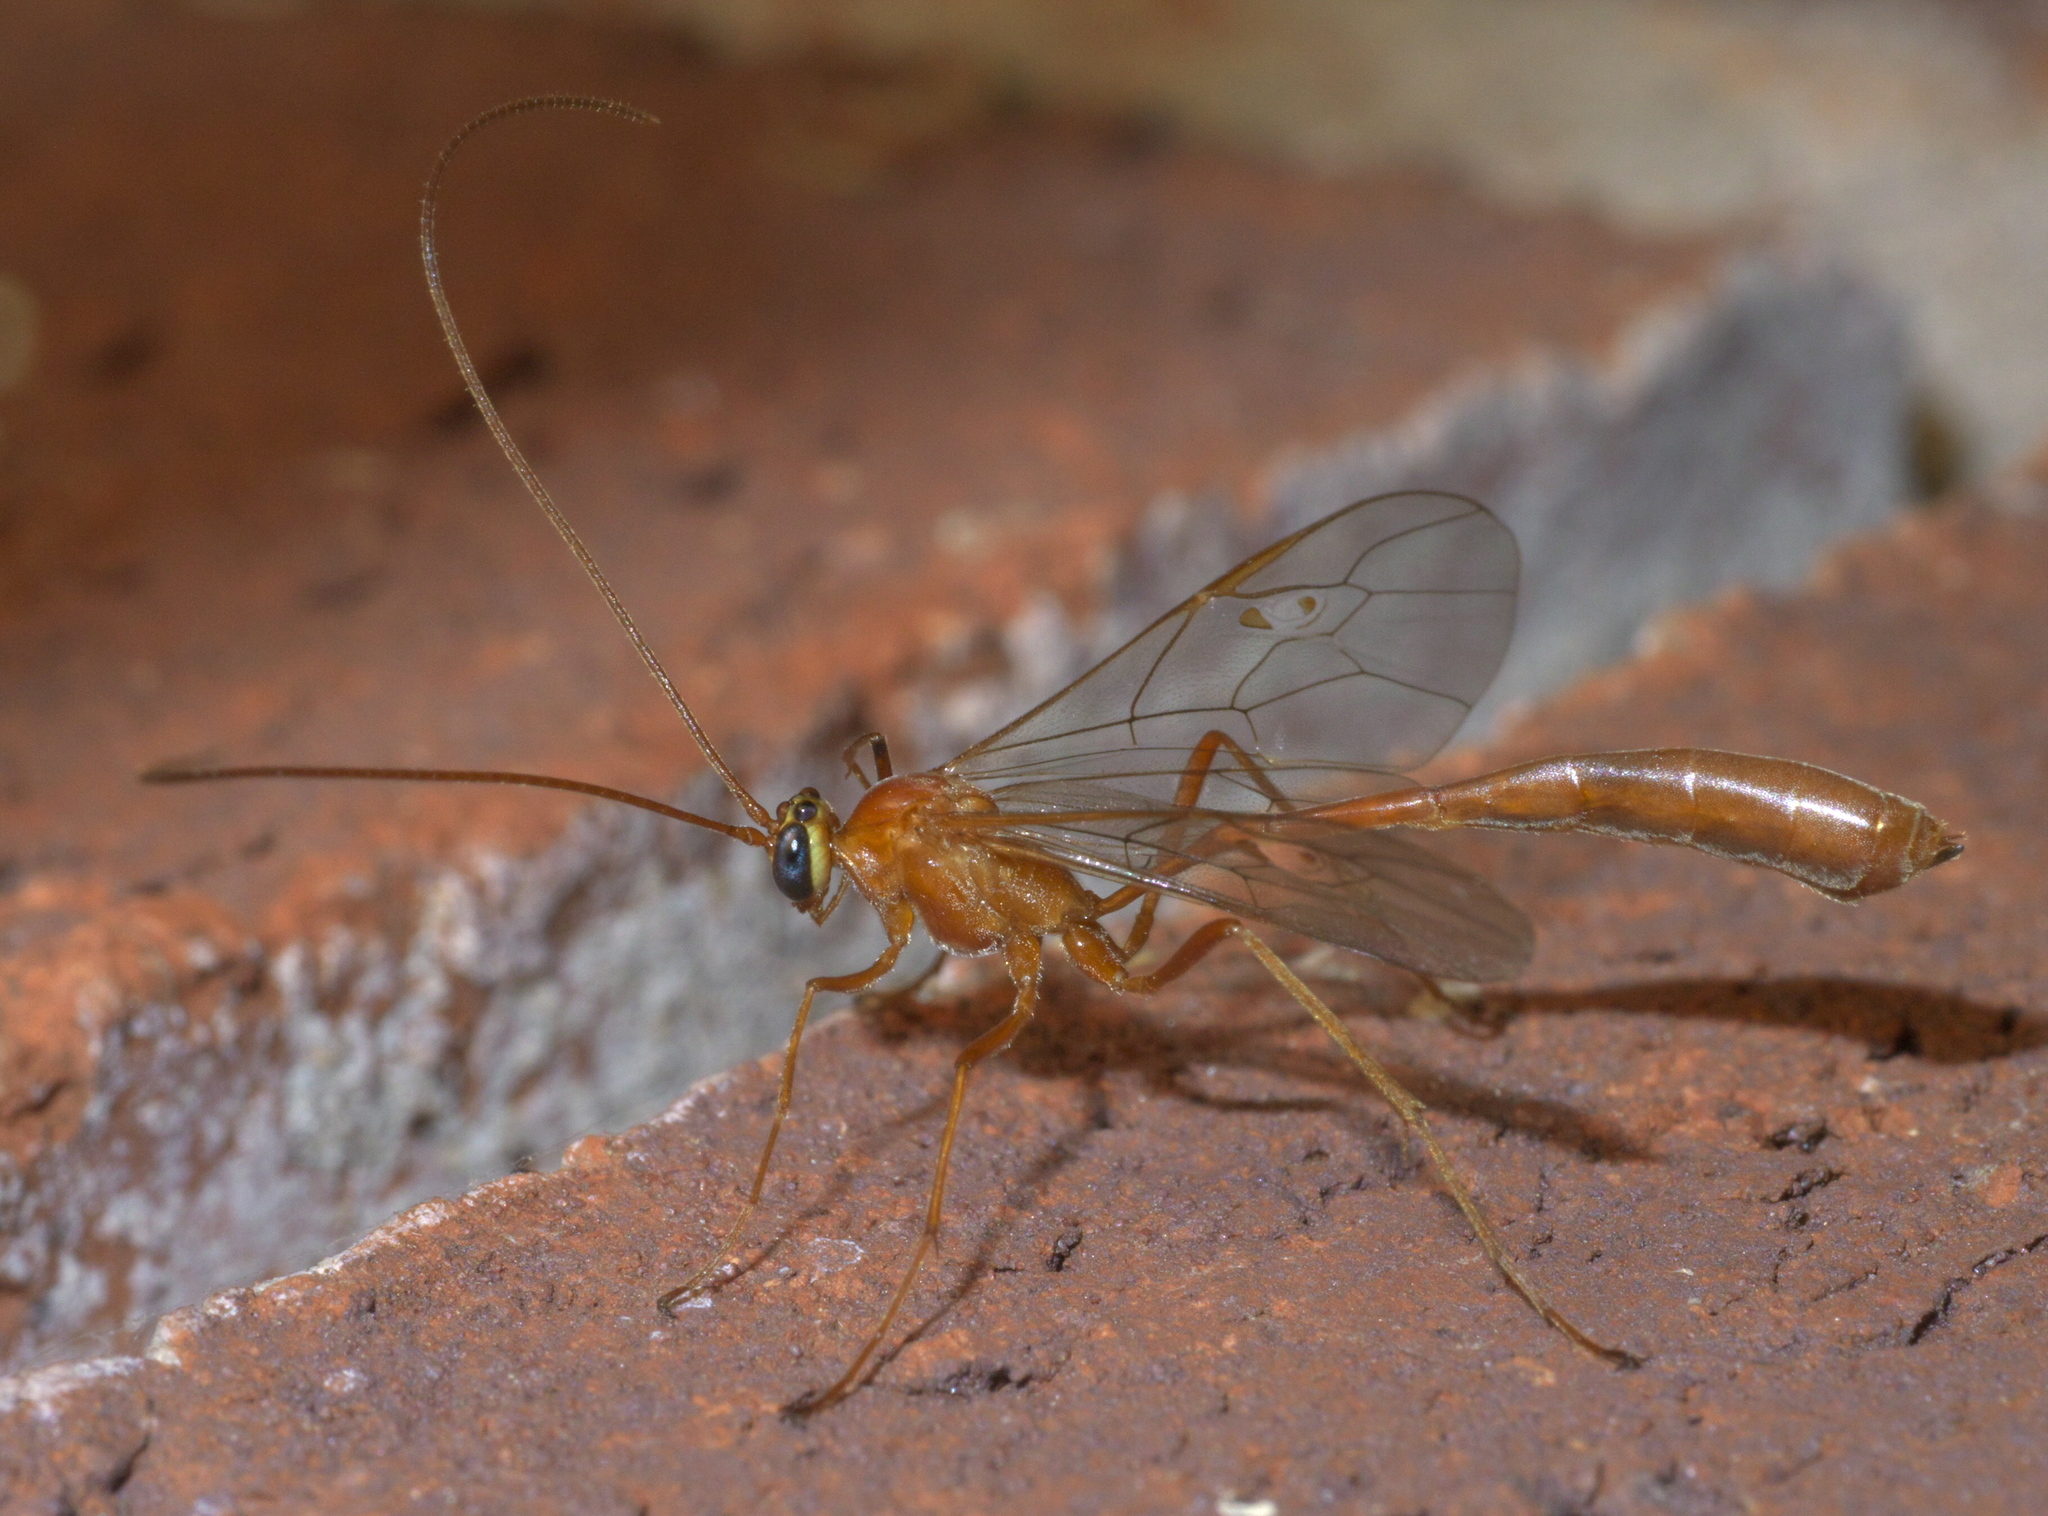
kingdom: Animalia
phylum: Arthropoda
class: Insecta
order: Hymenoptera
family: Ichneumonidae
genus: Enicospilus
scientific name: Enicospilus purgatus
